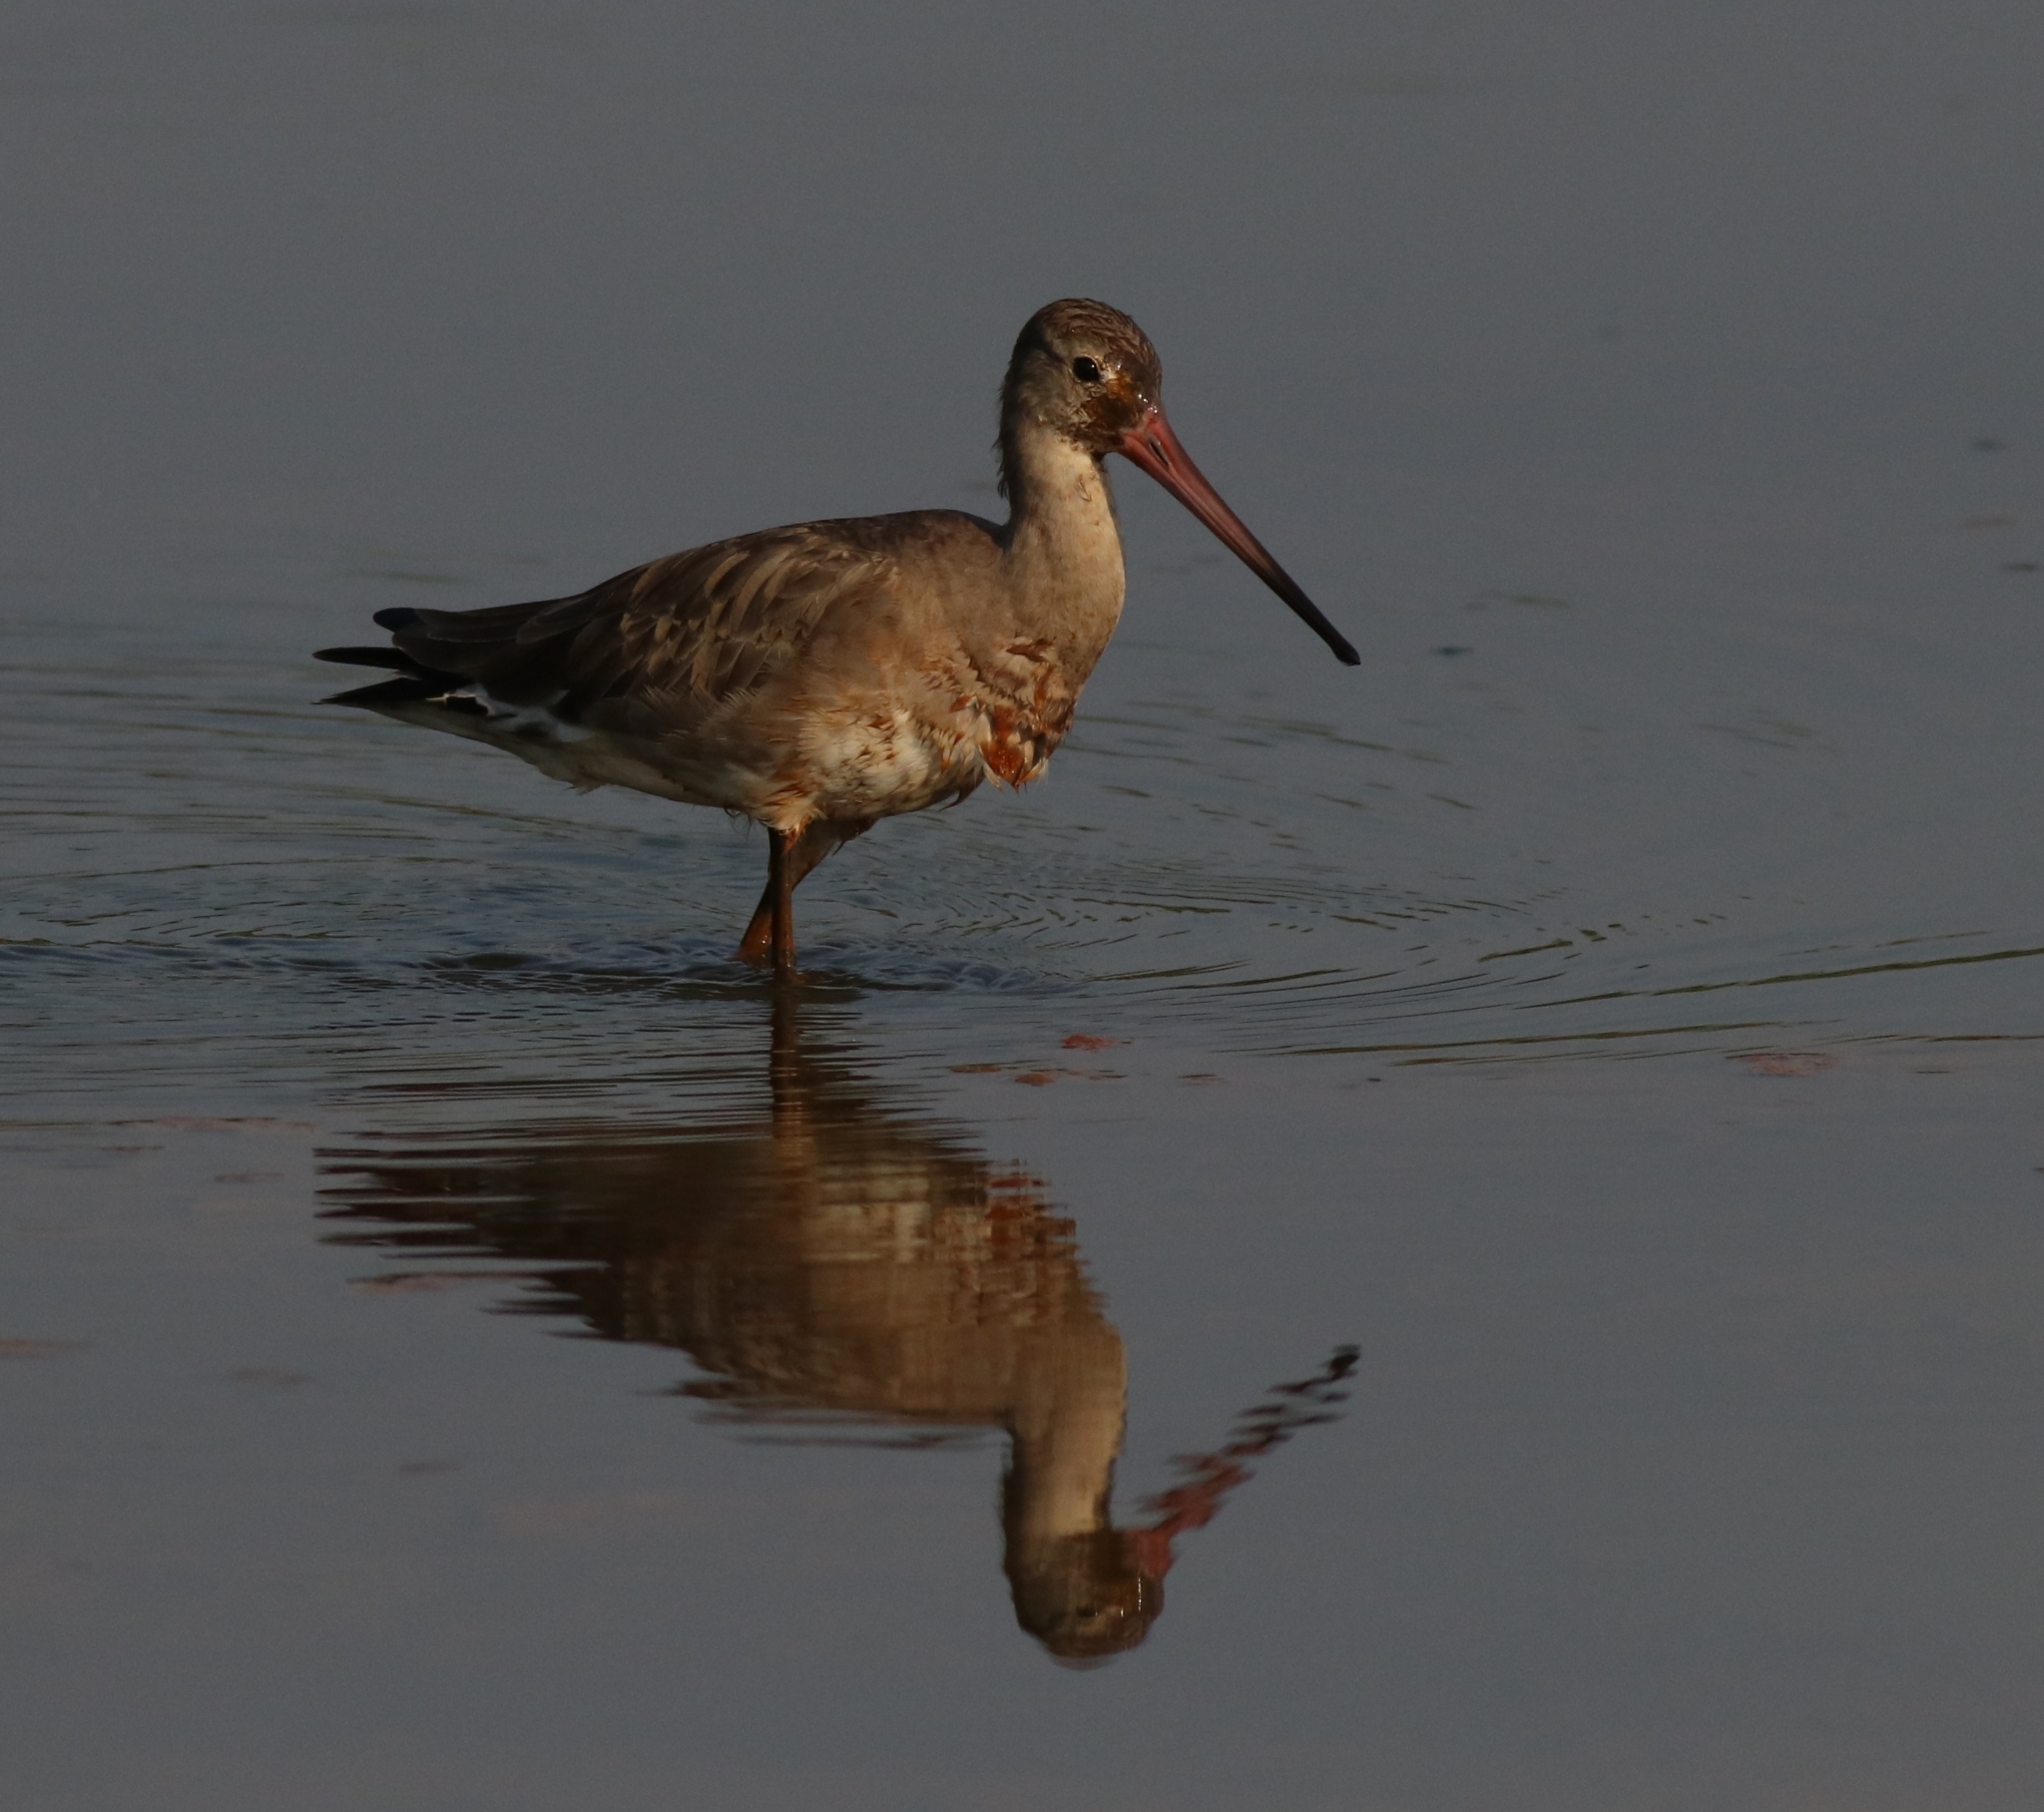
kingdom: Animalia
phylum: Chordata
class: Aves
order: Charadriiformes
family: Scolopacidae
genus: Limosa
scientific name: Limosa limosa
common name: Black-tailed godwit
